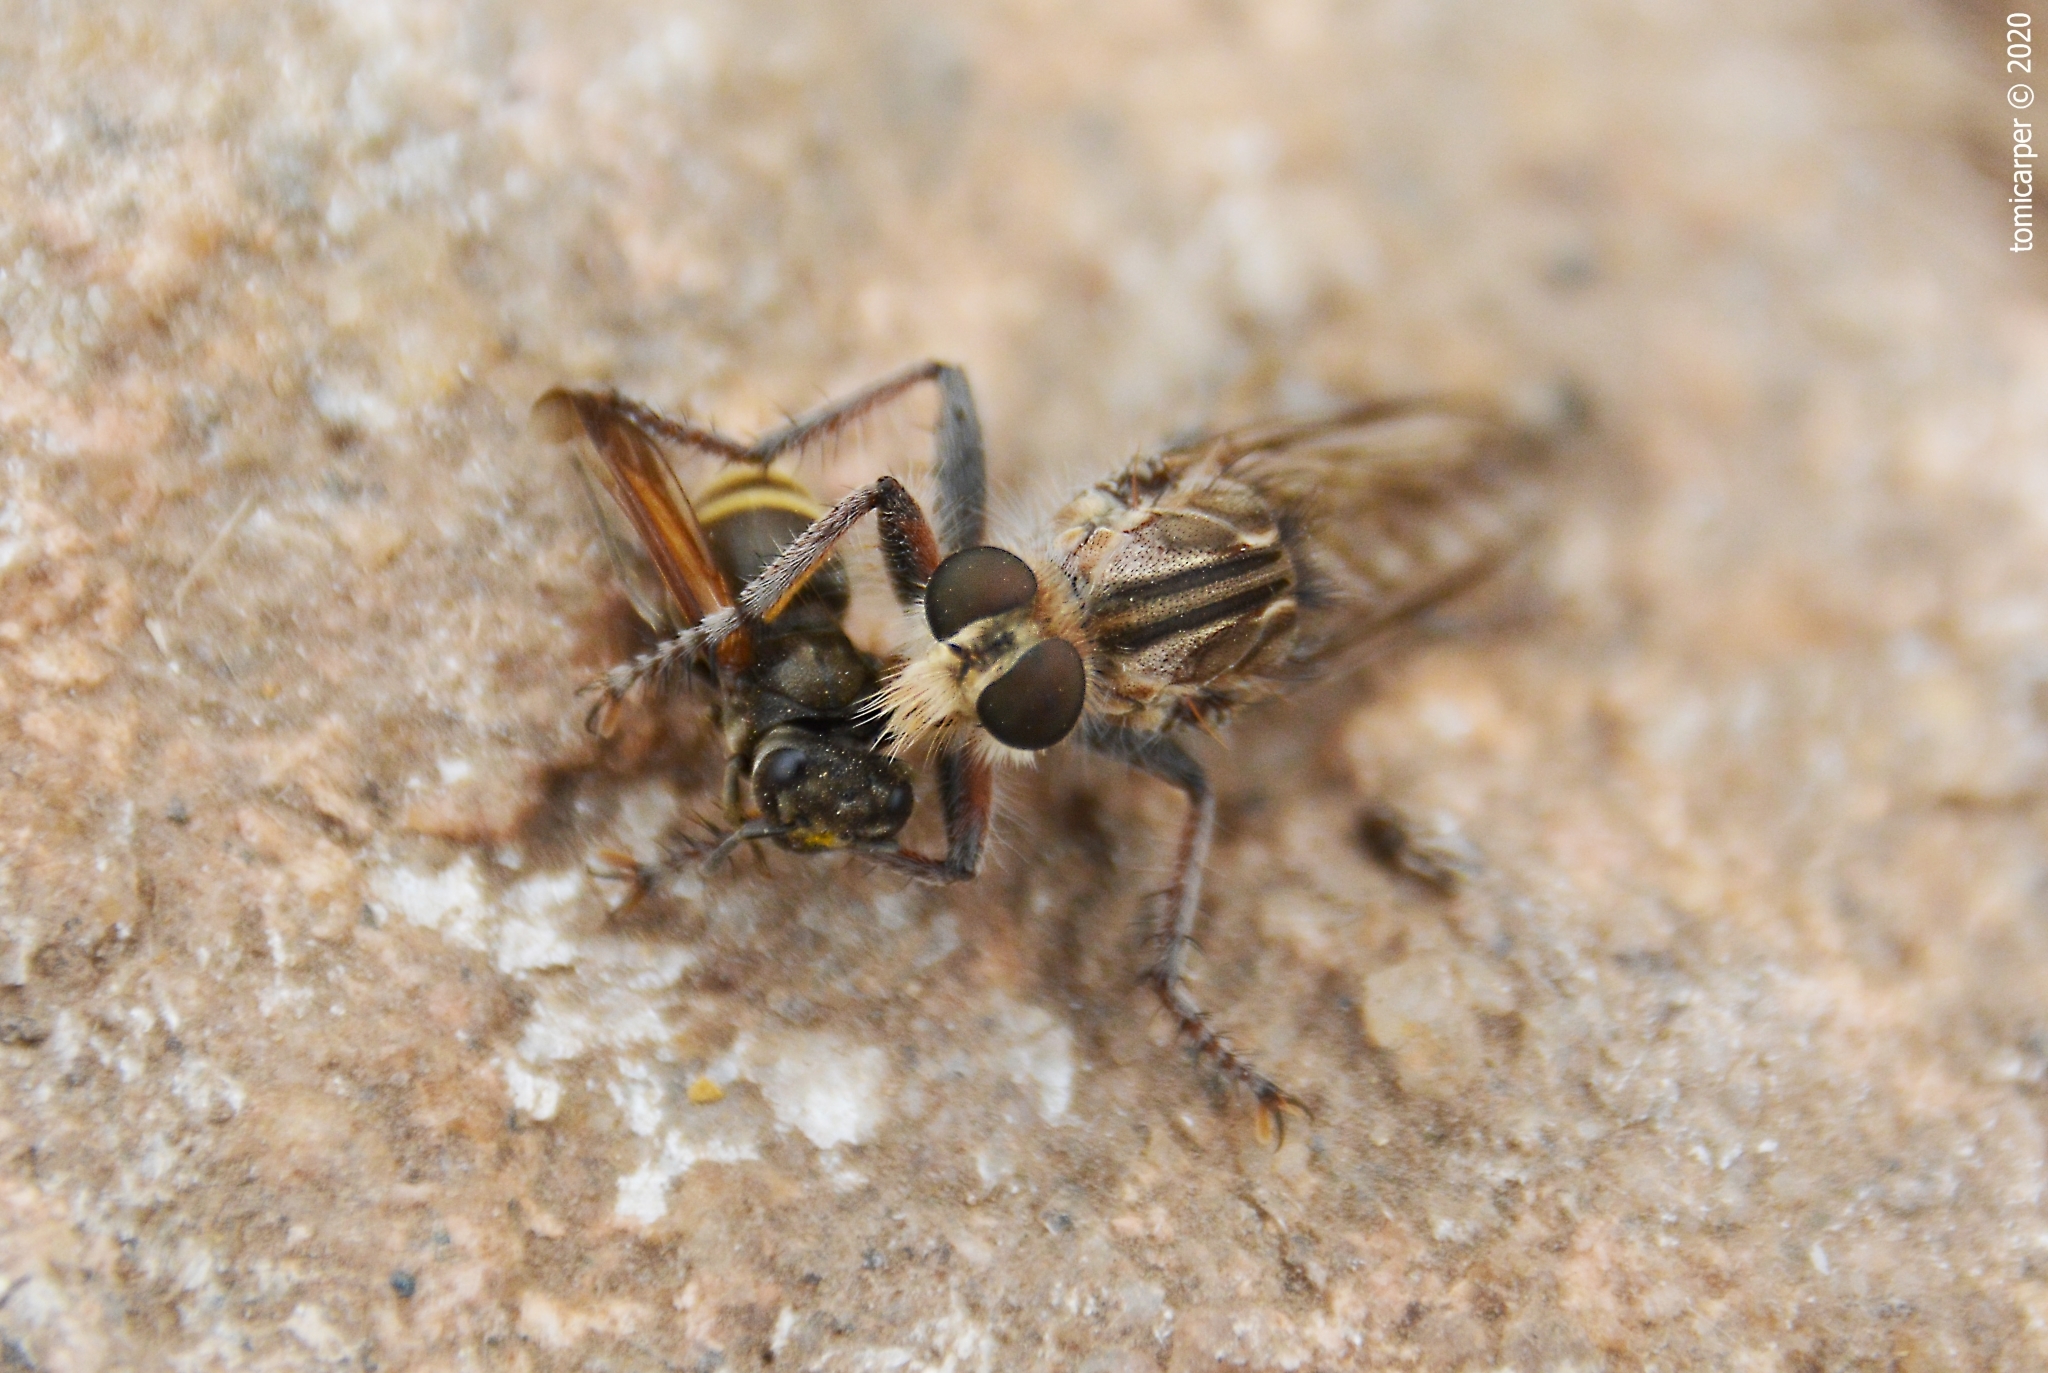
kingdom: Animalia
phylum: Arthropoda
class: Insecta
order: Hymenoptera
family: Vespidae
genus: Brachygastra
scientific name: Brachygastra lecheguana
